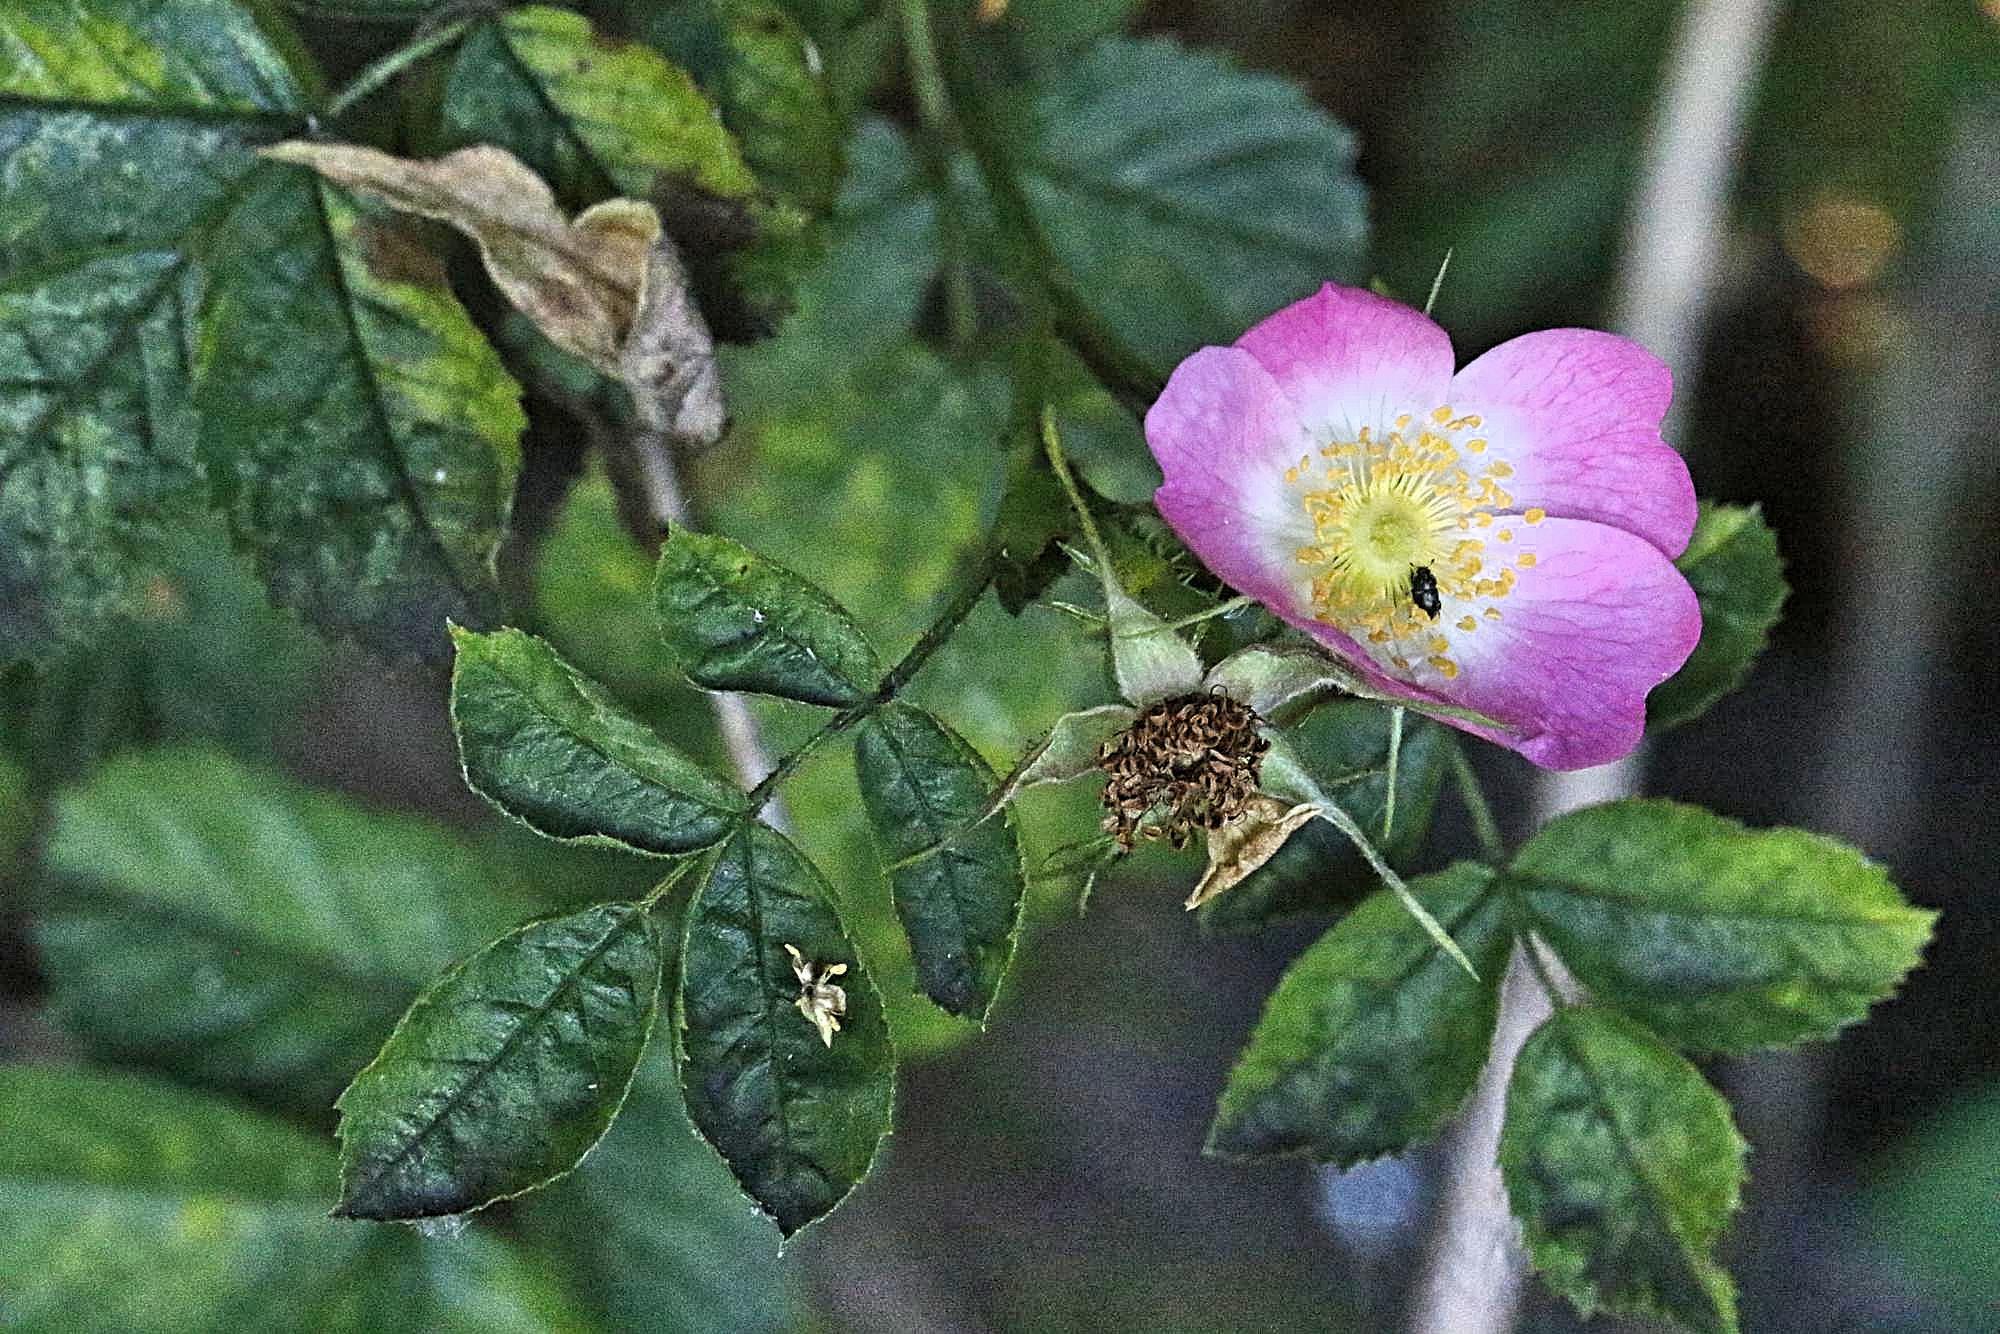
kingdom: Plantae
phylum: Tracheophyta
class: Magnoliopsida
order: Rosales
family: Rosaceae
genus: Rosa
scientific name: Rosa canina
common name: Dog rose
